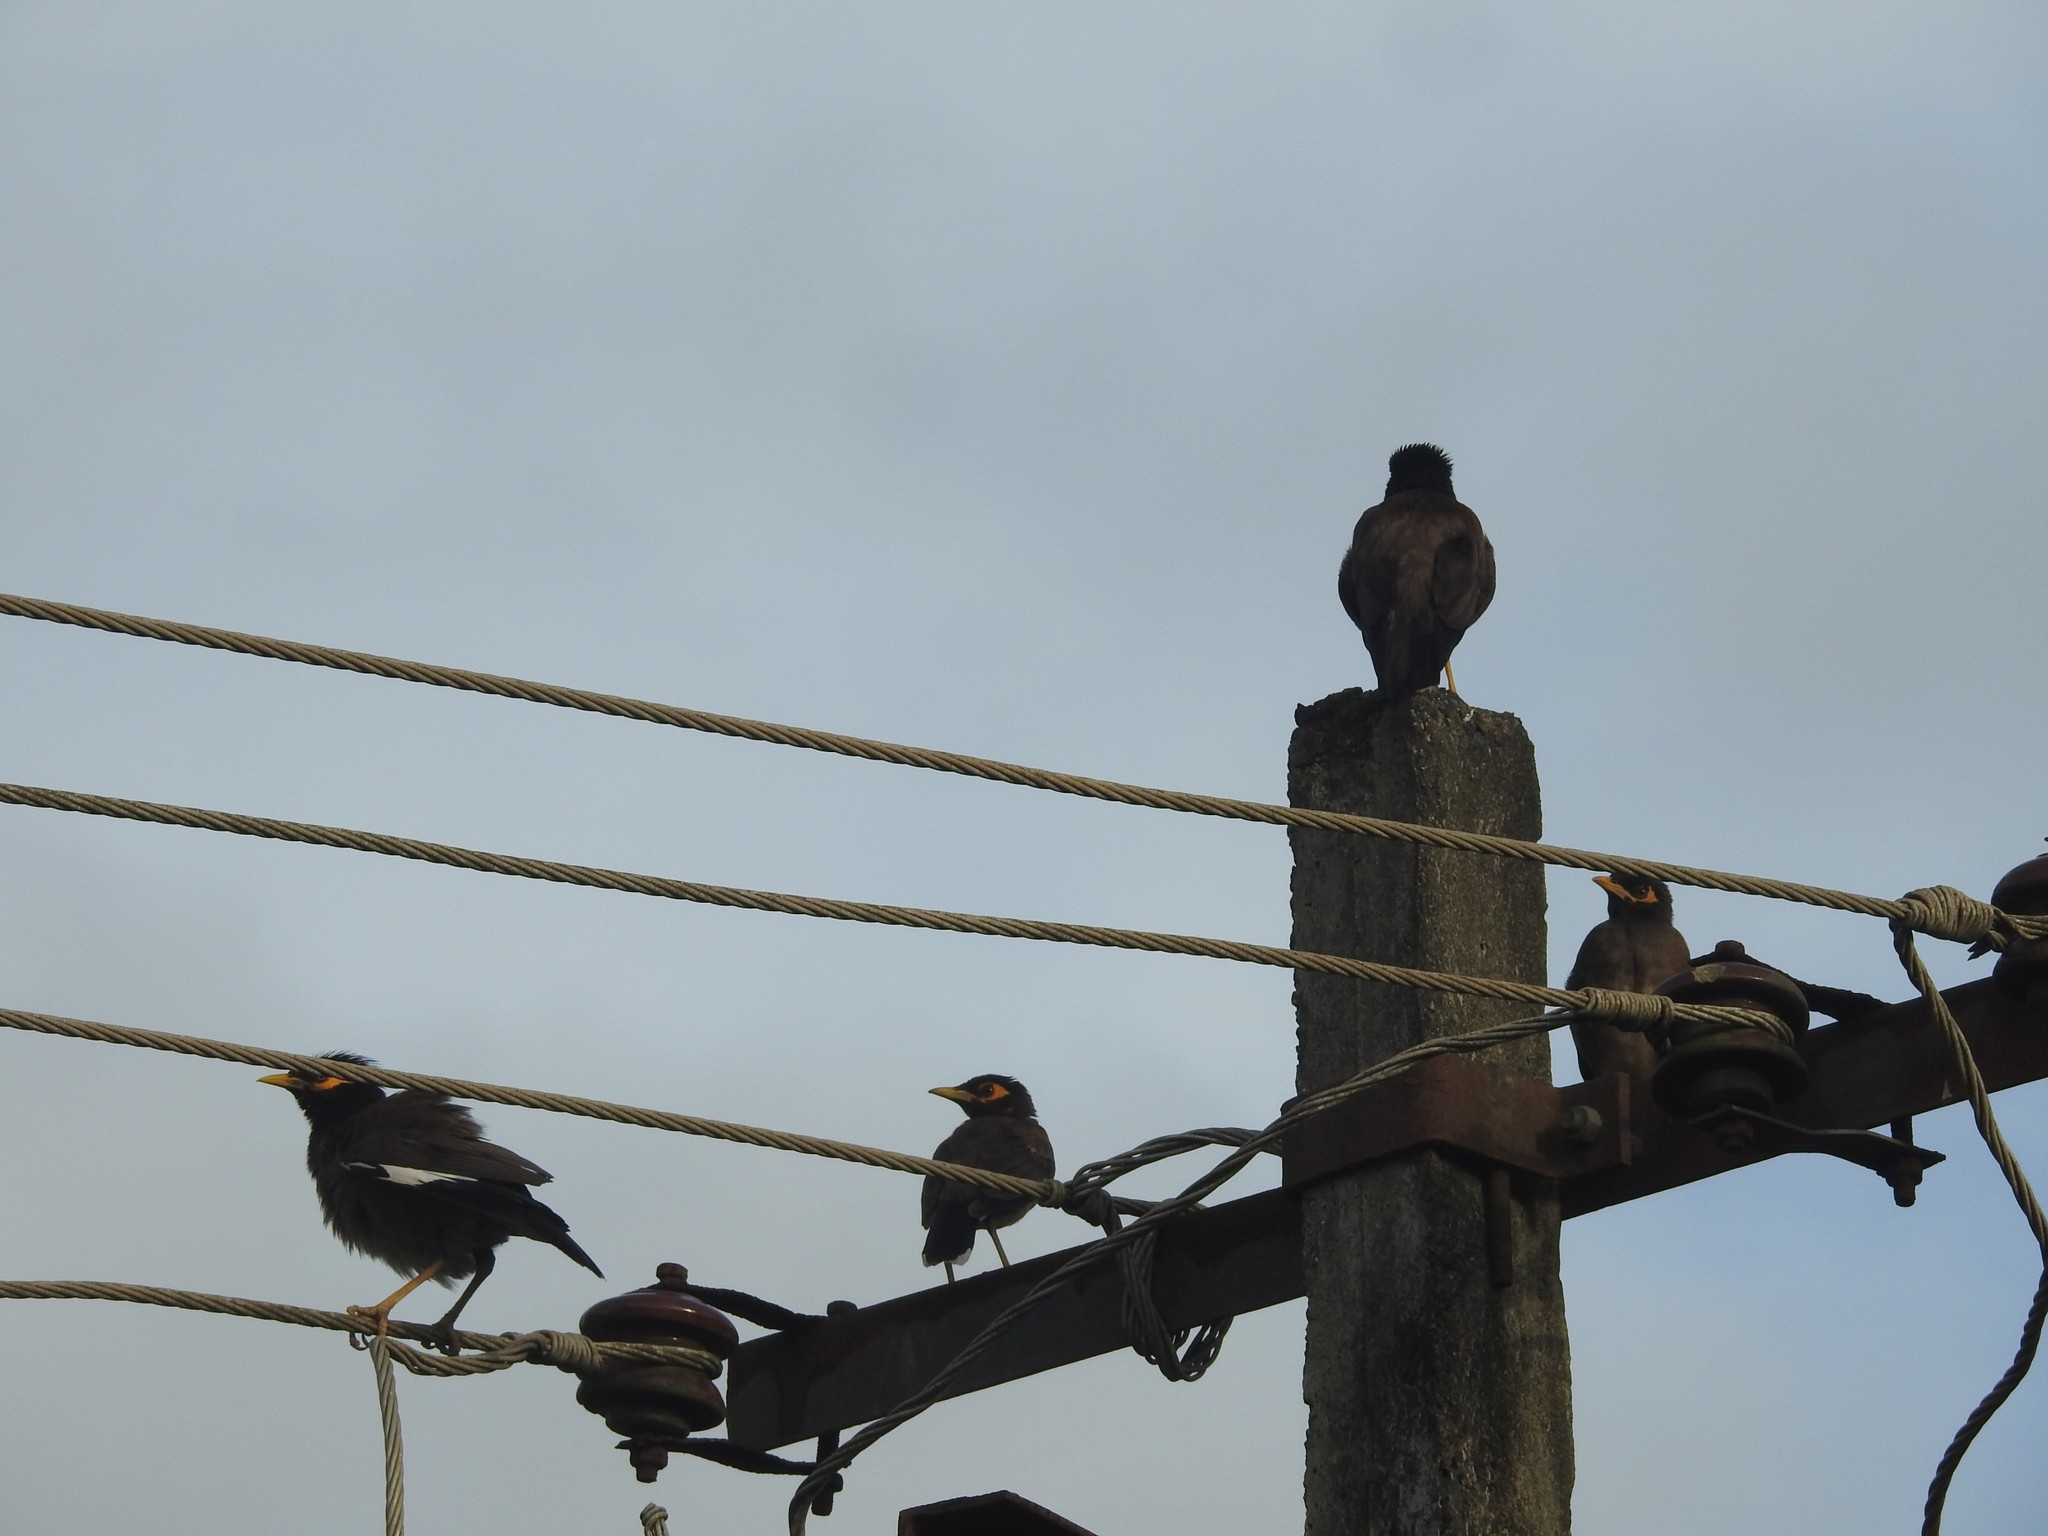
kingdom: Animalia
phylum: Chordata
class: Aves
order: Passeriformes
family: Sturnidae
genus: Acridotheres
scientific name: Acridotheres tristis
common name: Common myna
